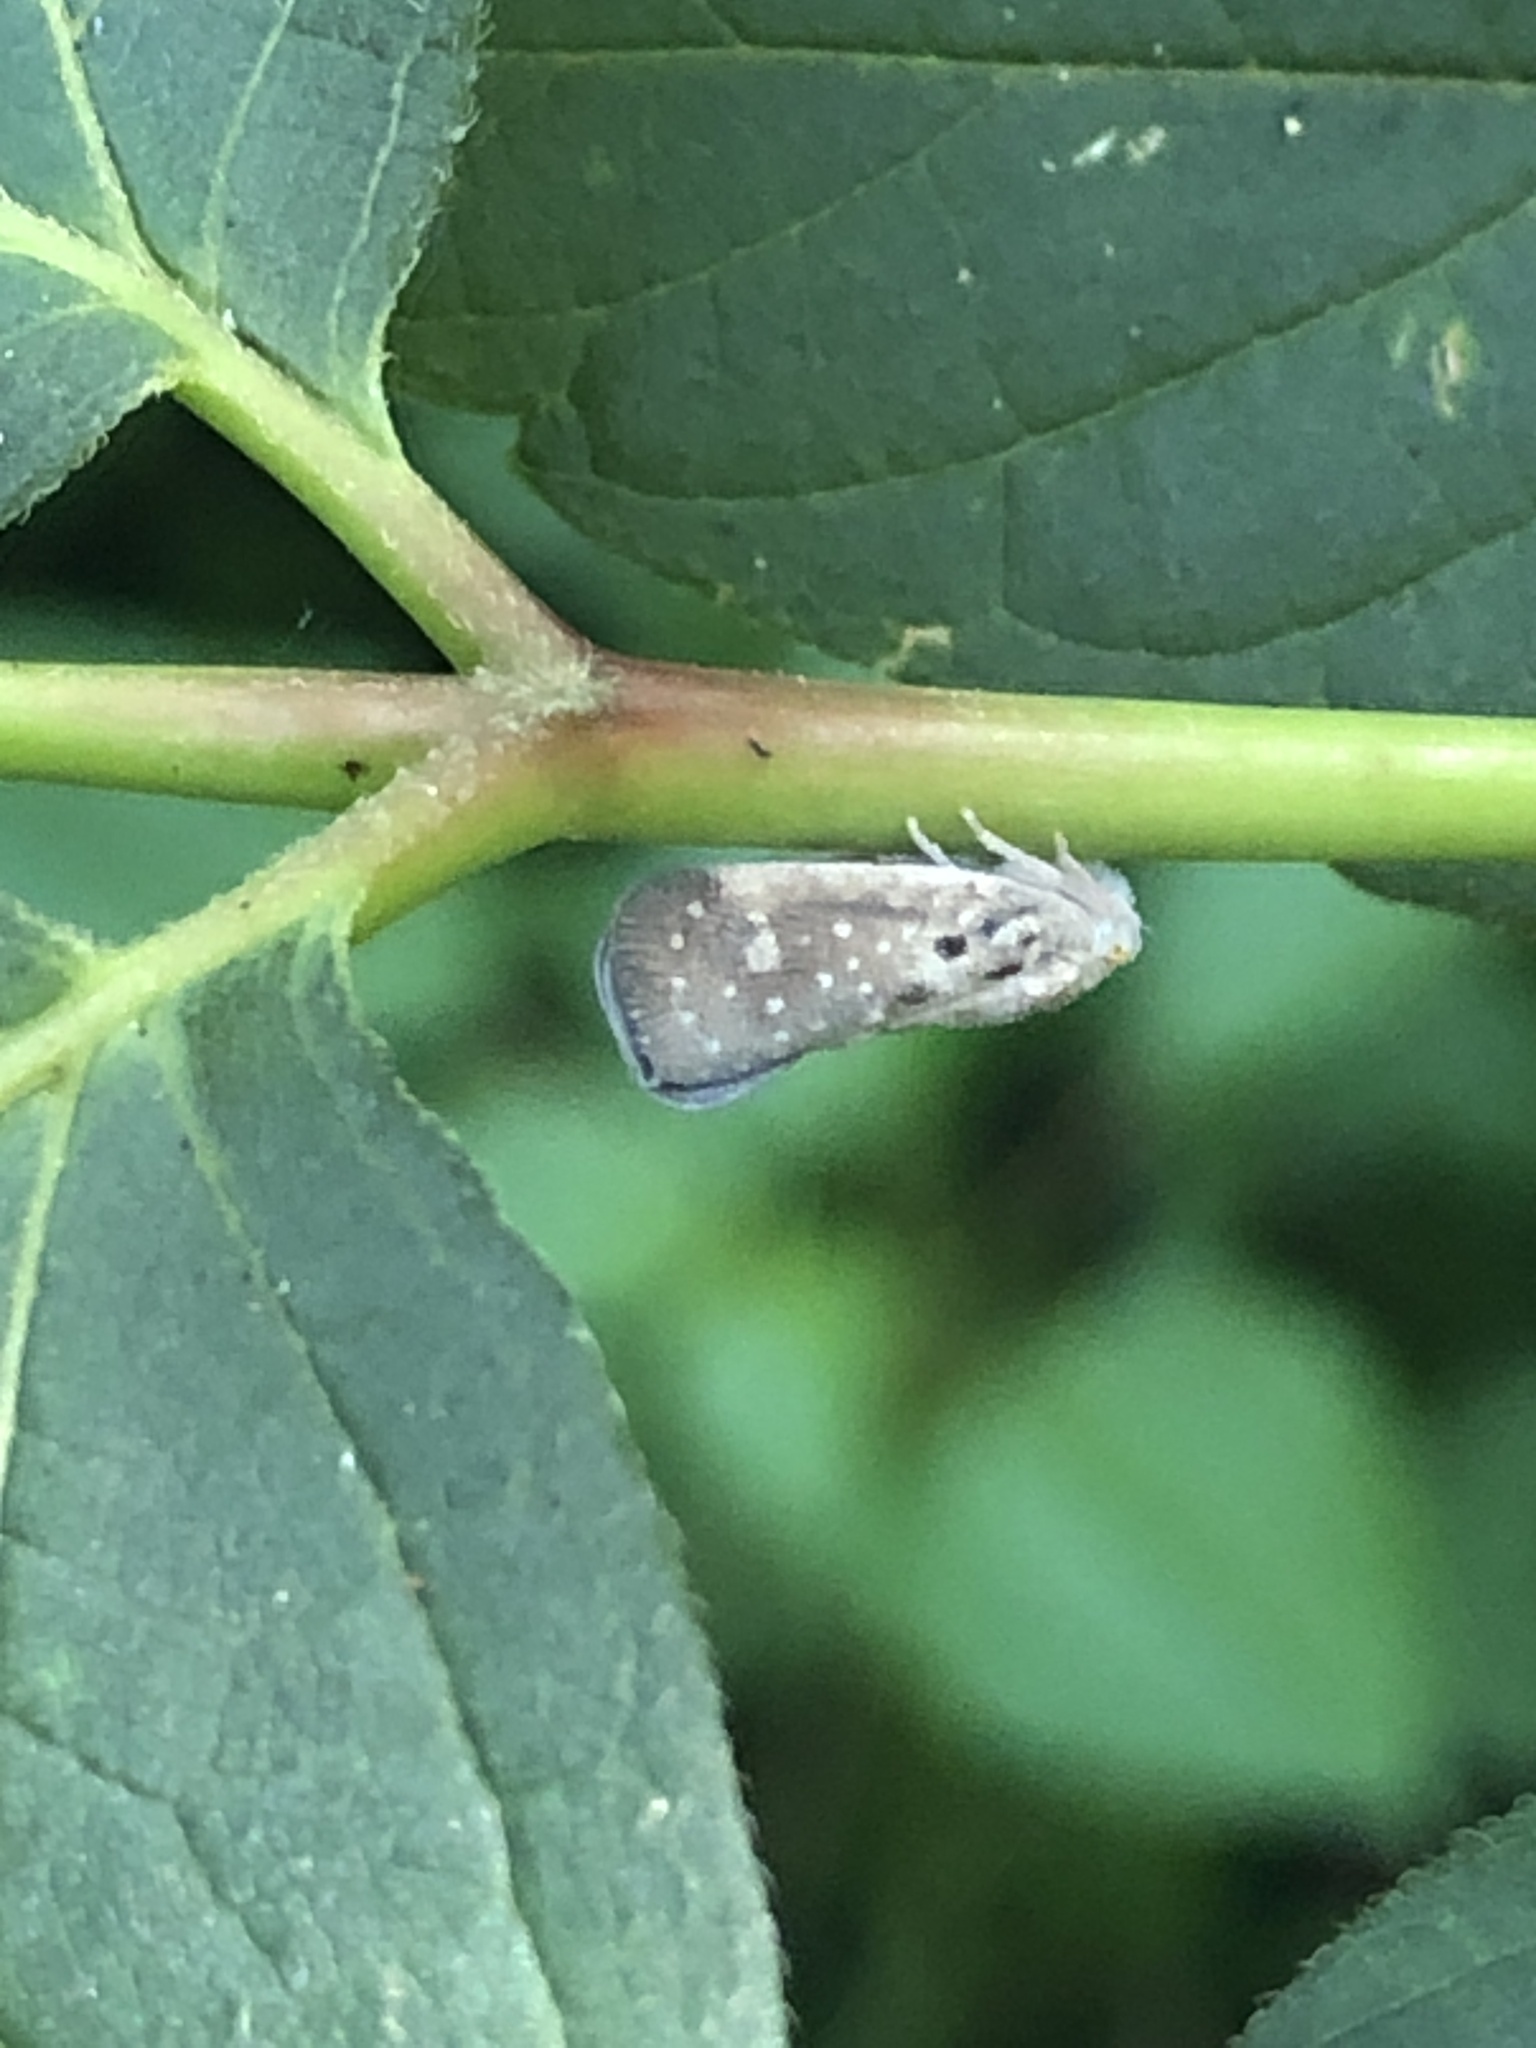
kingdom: Animalia
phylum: Arthropoda
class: Insecta
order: Hemiptera
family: Flatidae
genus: Metcalfa
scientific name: Metcalfa pruinosa
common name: Citrus flatid planthopper
